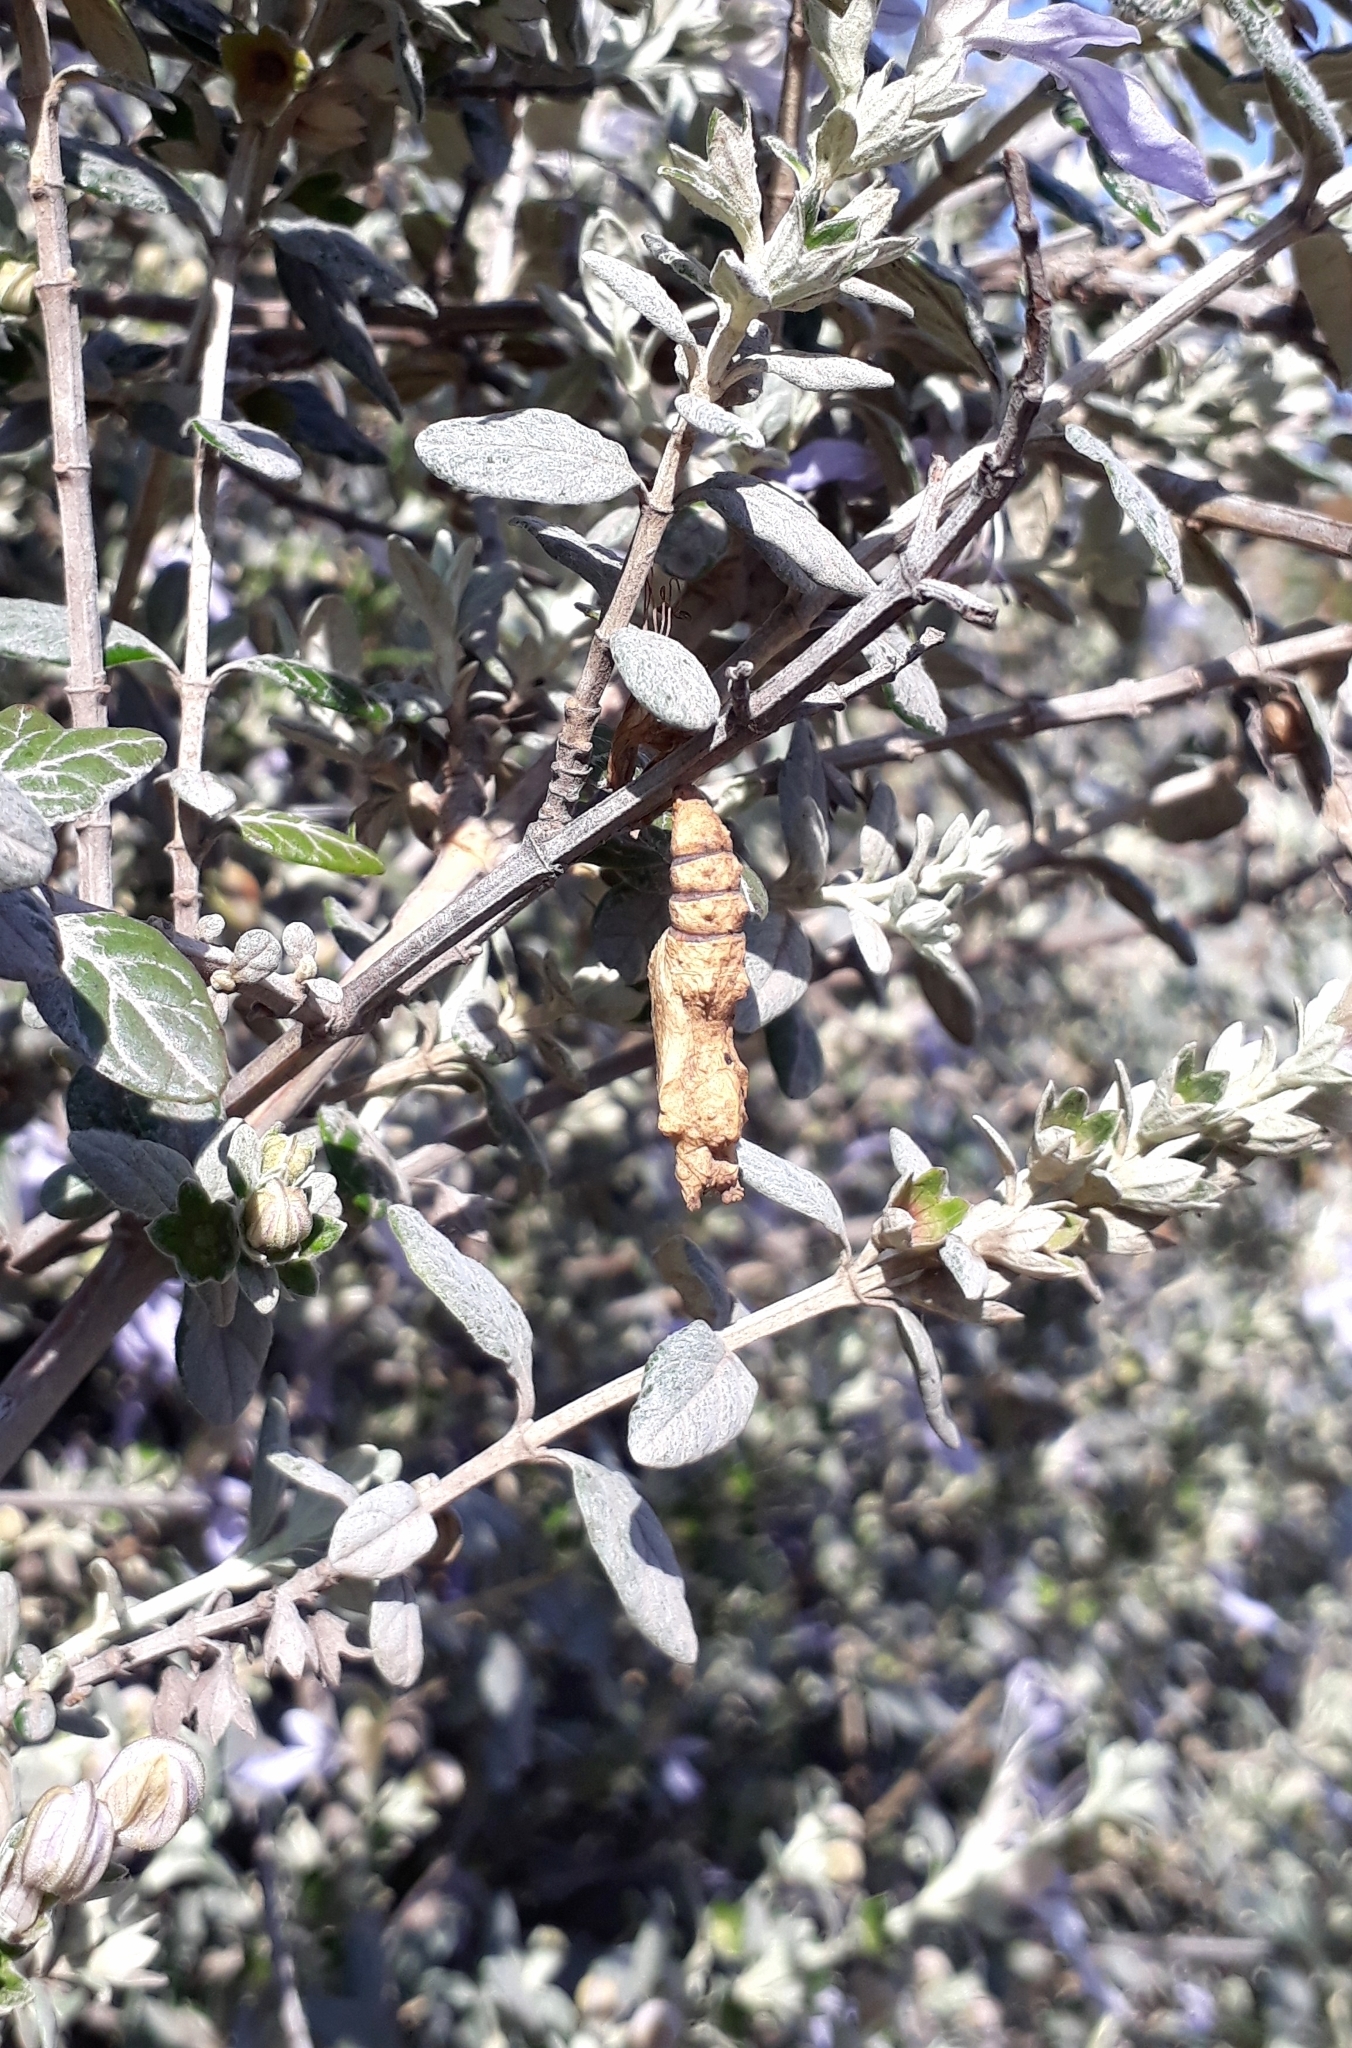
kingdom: Animalia
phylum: Arthropoda
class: Insecta
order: Lepidoptera
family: Nymphalidae
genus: Dione
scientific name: Dione vanillae
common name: Gulf fritillary
